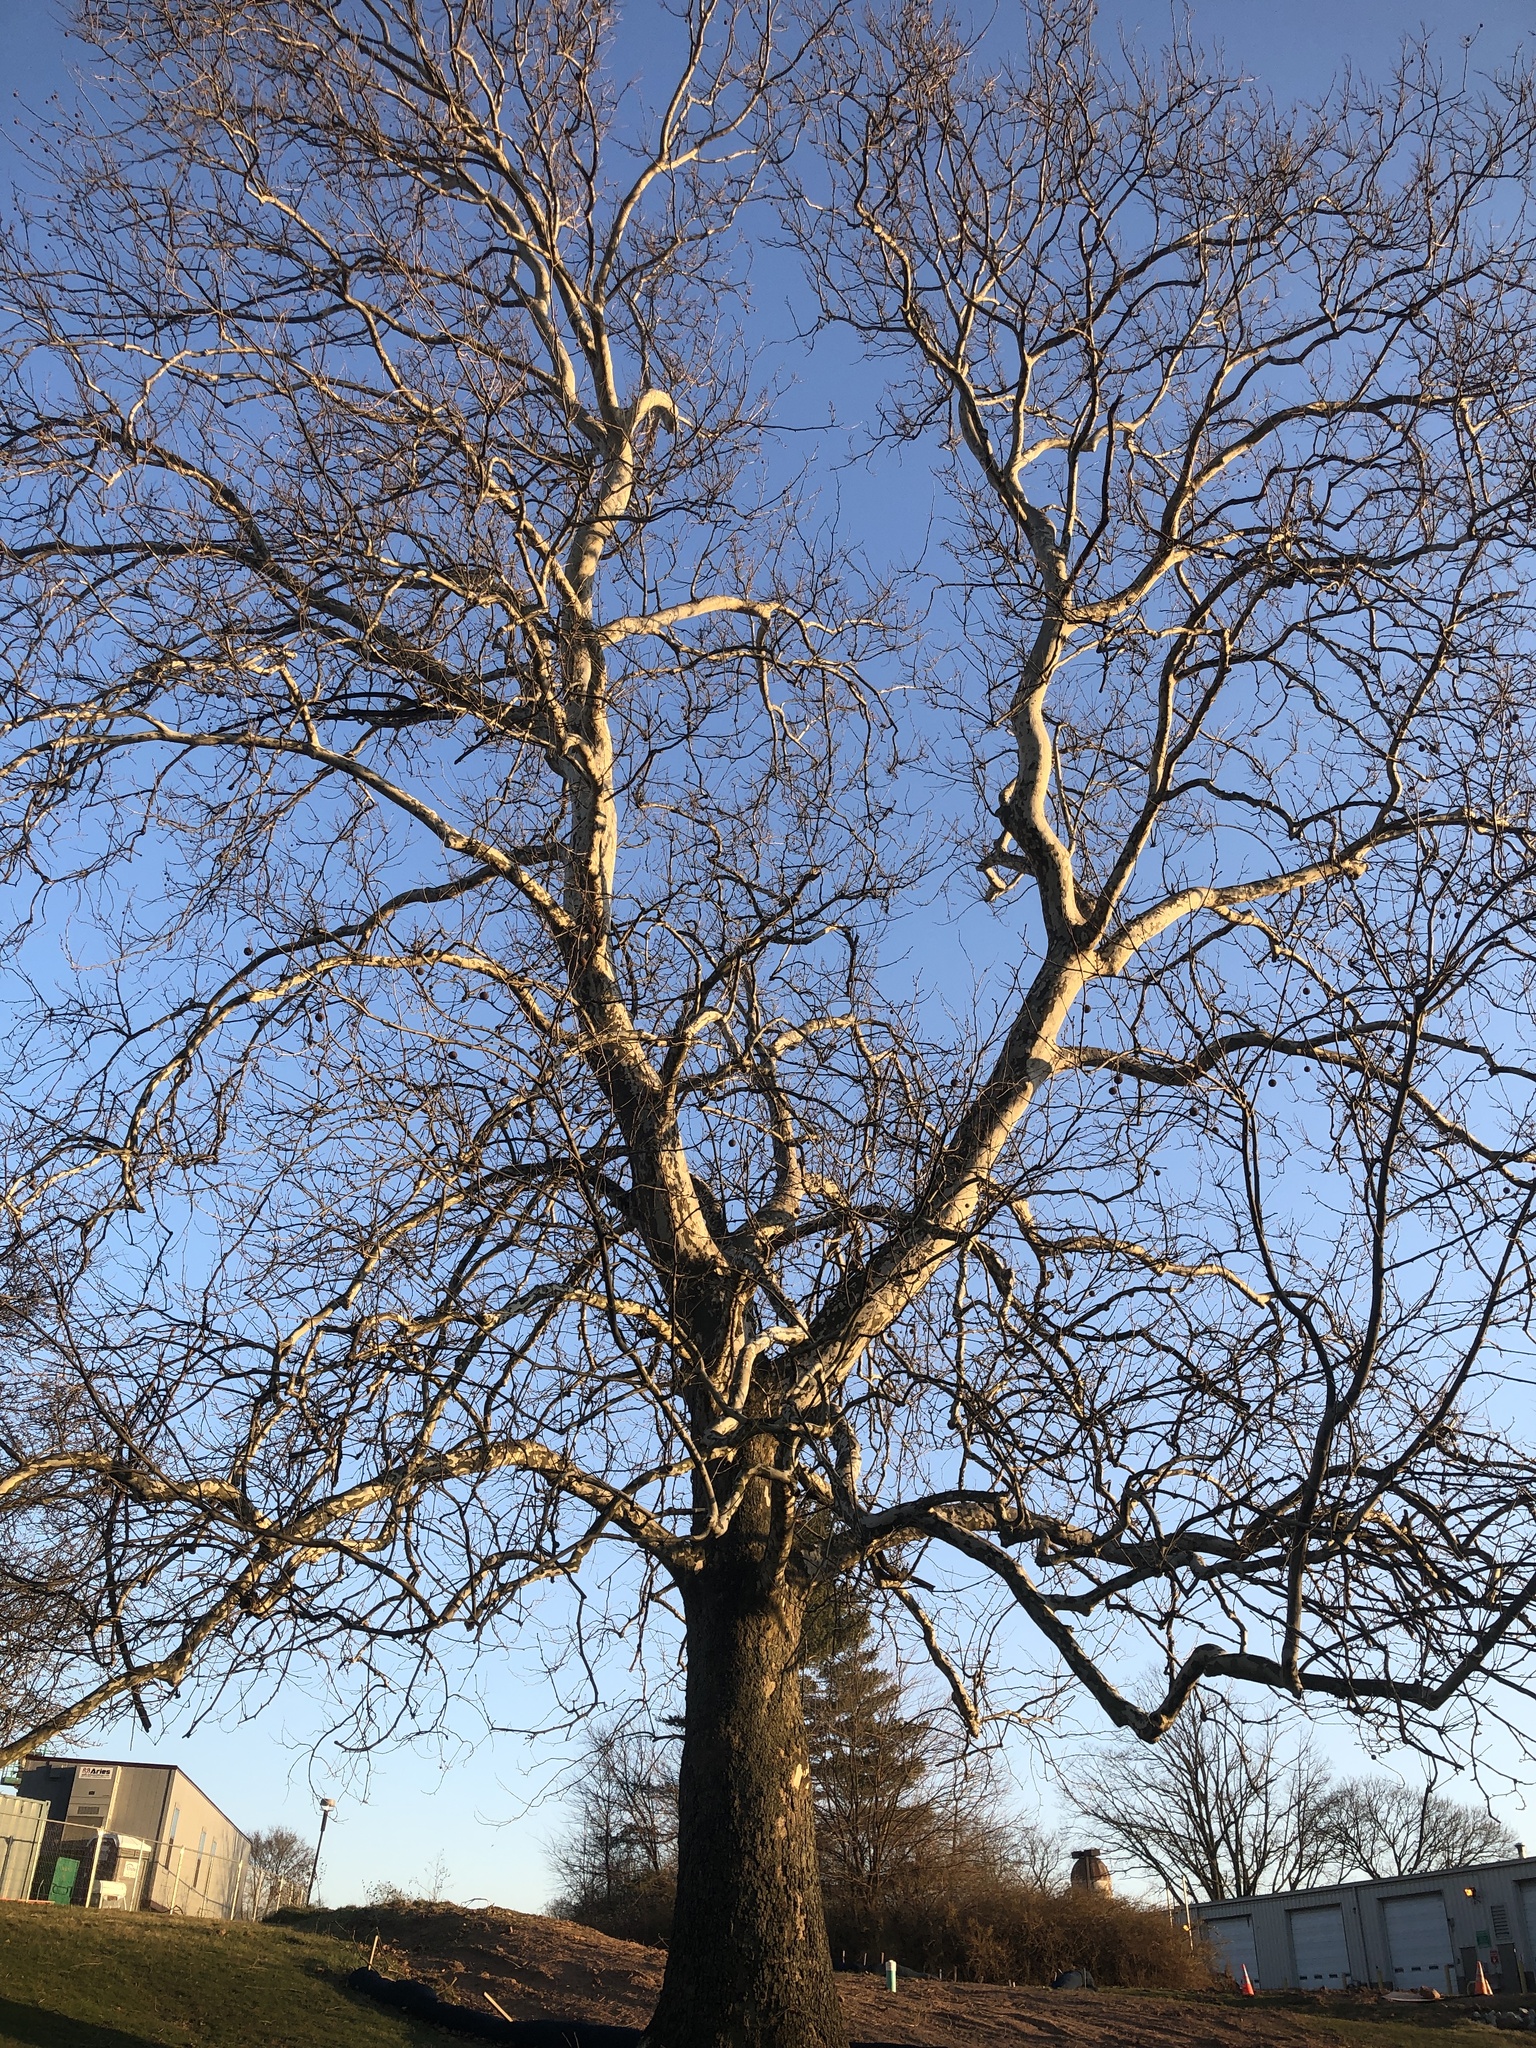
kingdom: Plantae
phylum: Tracheophyta
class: Magnoliopsida
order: Proteales
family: Platanaceae
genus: Platanus
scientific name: Platanus occidentalis
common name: American sycamore
